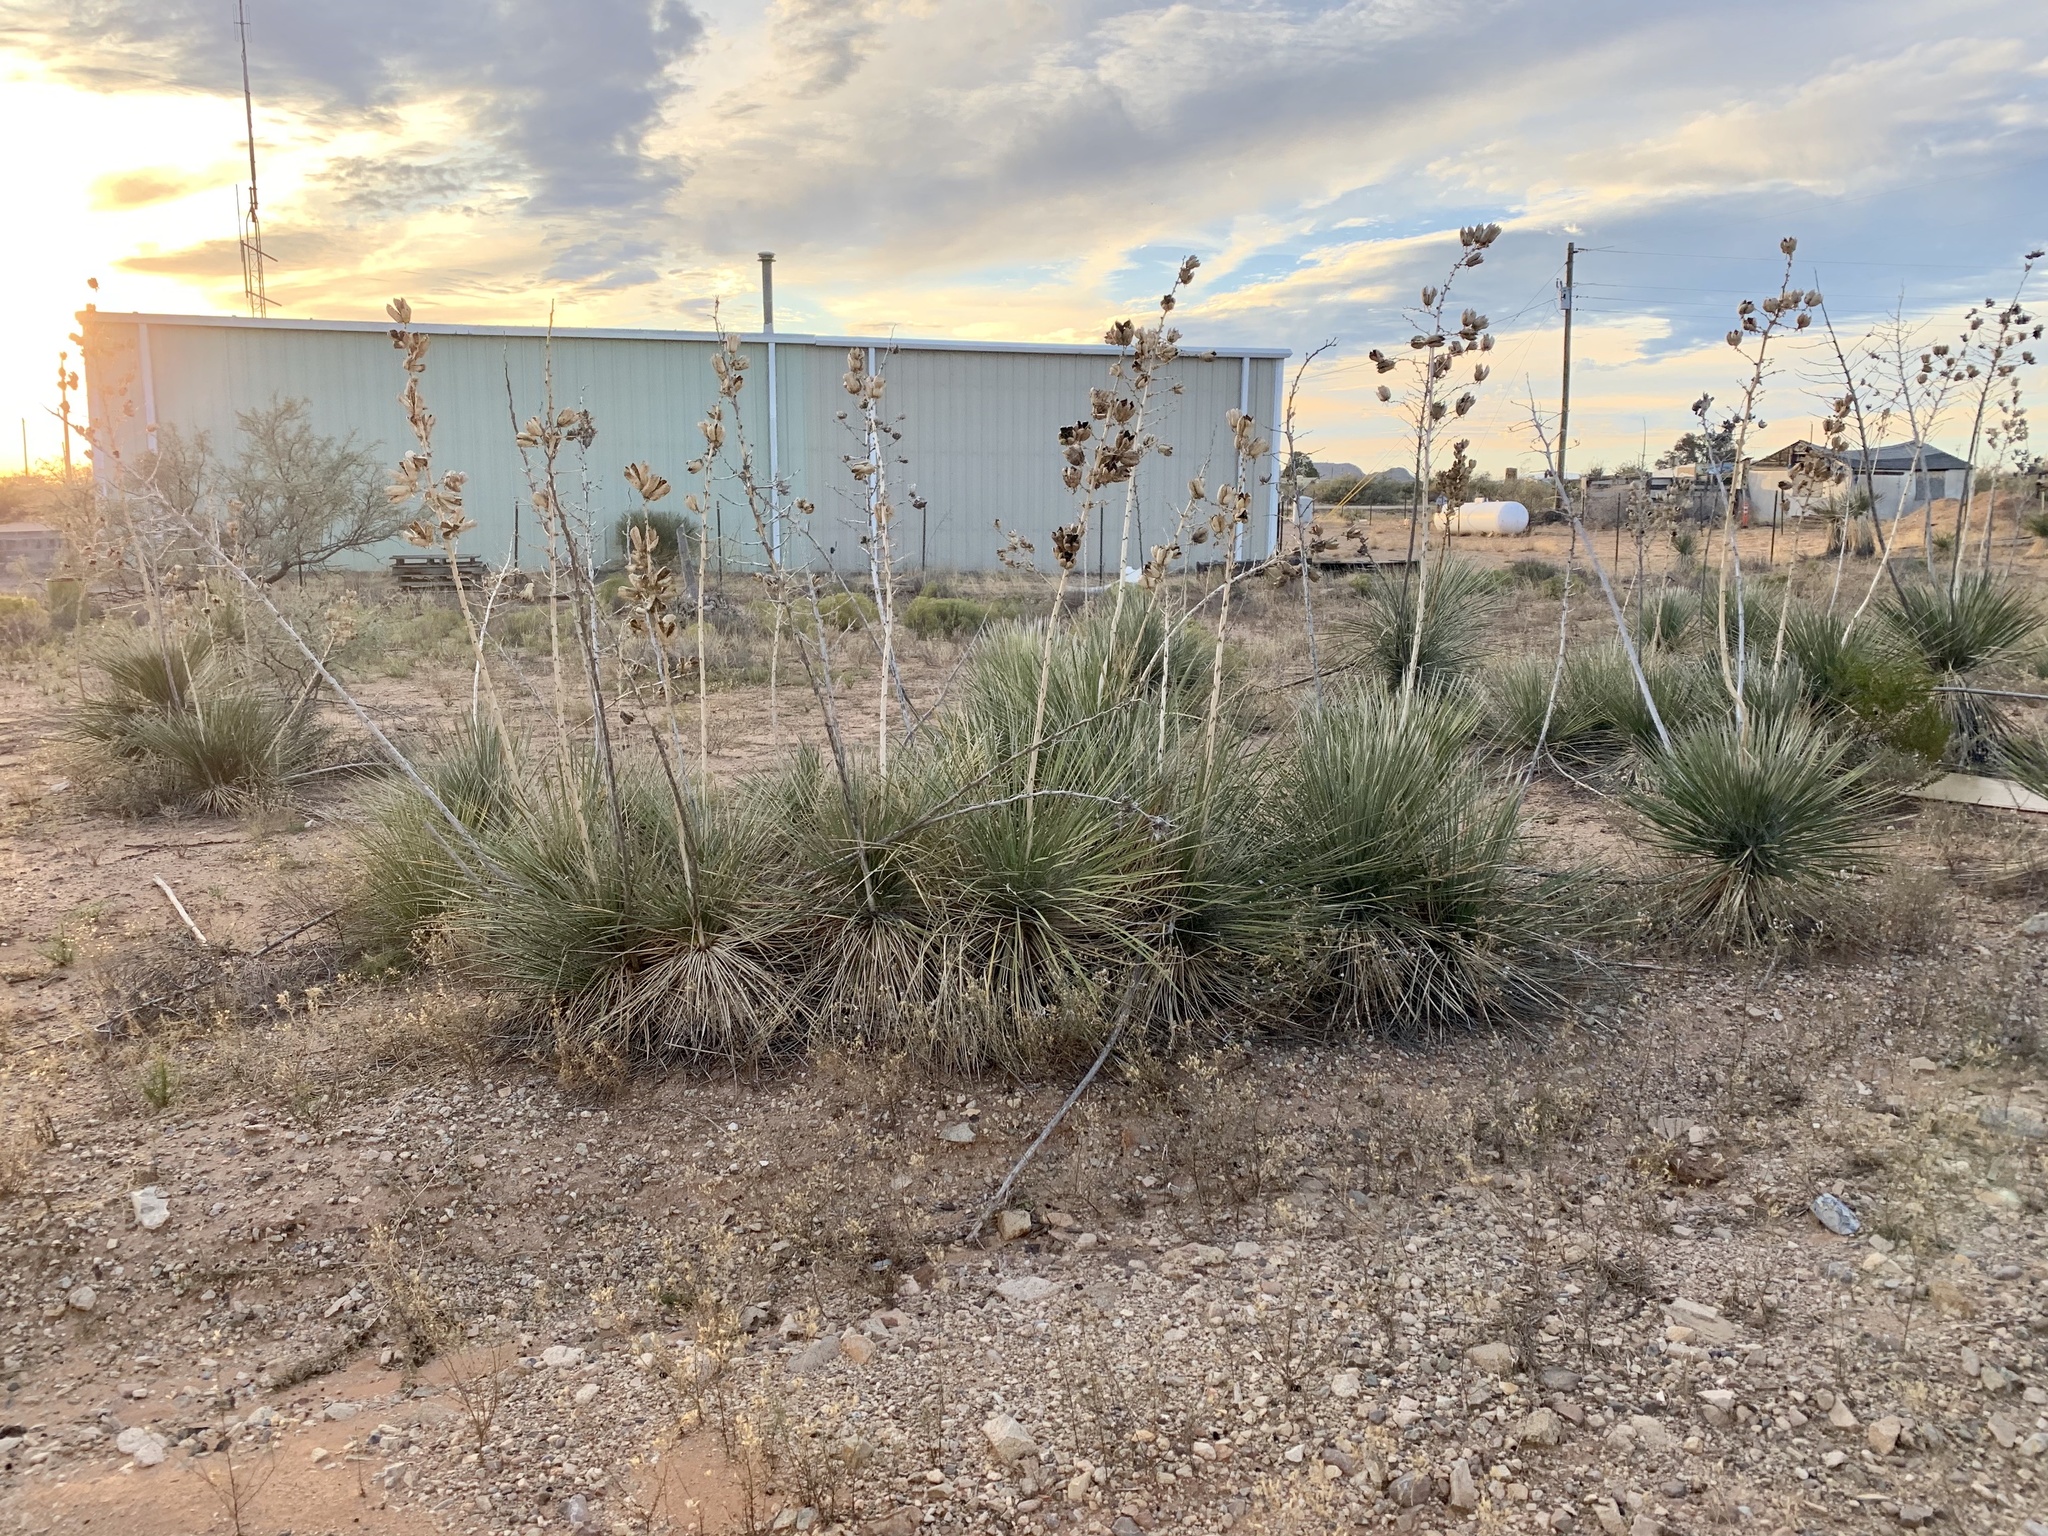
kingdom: Plantae
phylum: Tracheophyta
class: Liliopsida
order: Asparagales
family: Asparagaceae
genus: Yucca
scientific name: Yucca elata
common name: Palmella
